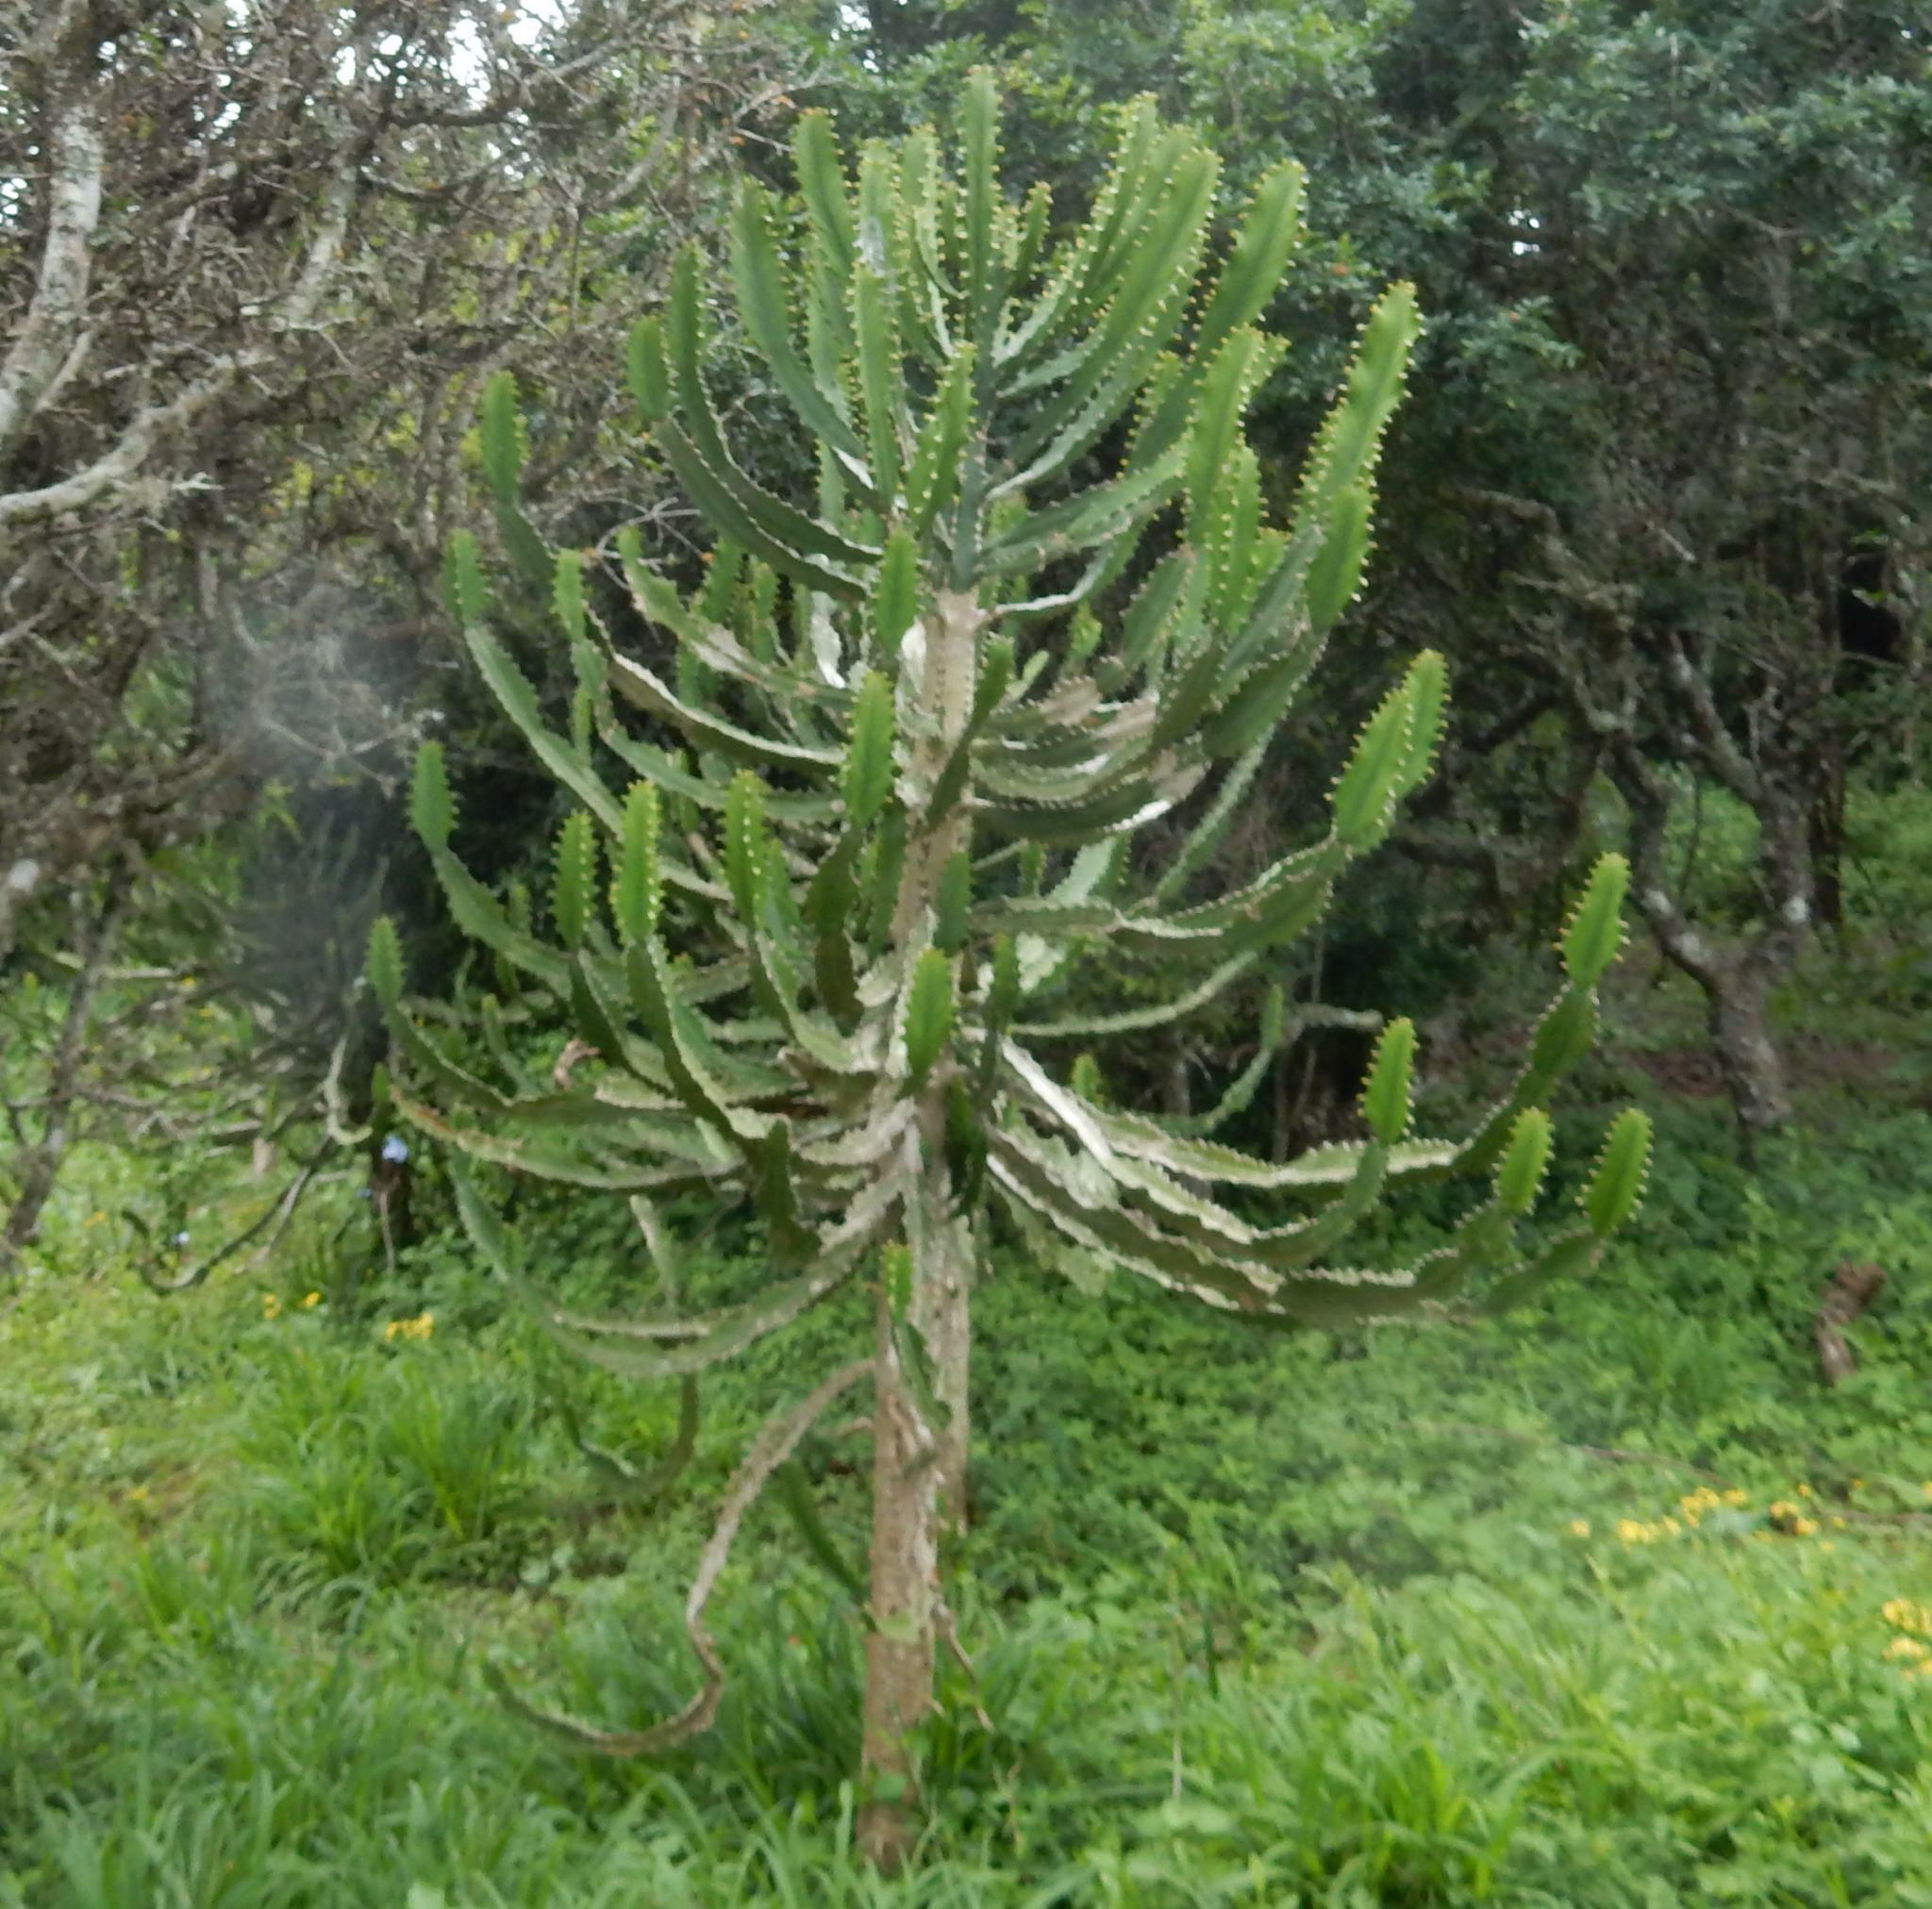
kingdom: Plantae
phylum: Tracheophyta
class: Magnoliopsida
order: Malpighiales
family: Euphorbiaceae
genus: Euphorbia
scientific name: Euphorbia triangularis
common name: Chandelier tree
